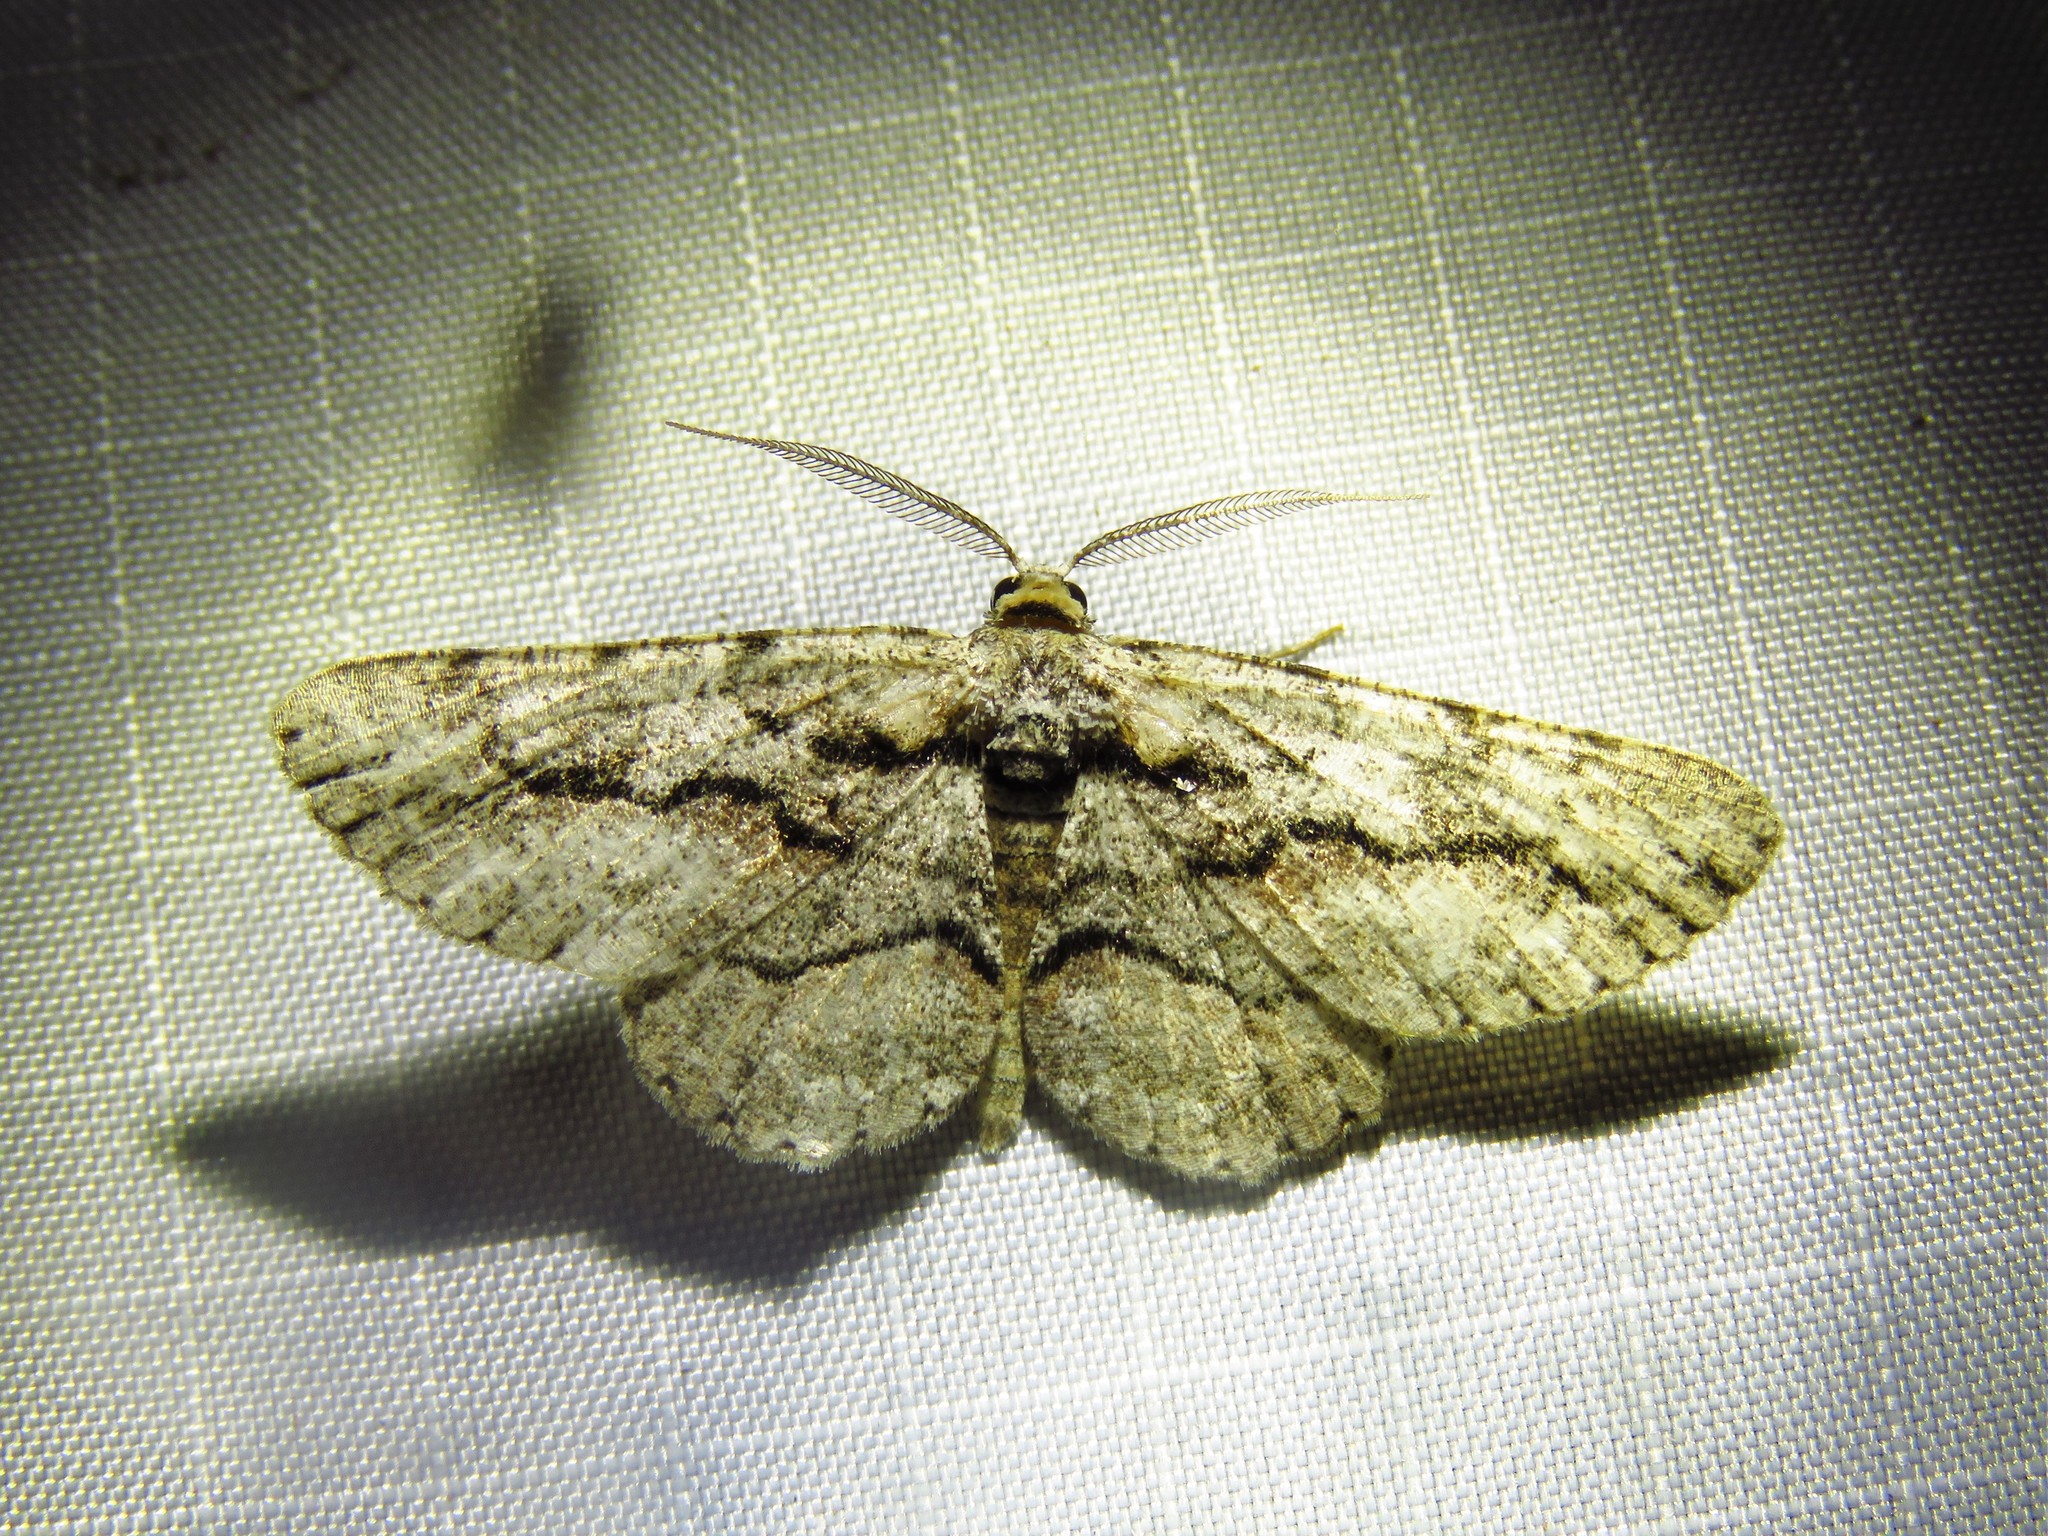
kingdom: Animalia
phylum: Arthropoda
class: Insecta
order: Lepidoptera
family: Geometridae
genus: Anavitrinella
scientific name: Anavitrinella pampinaria
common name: Common gray
